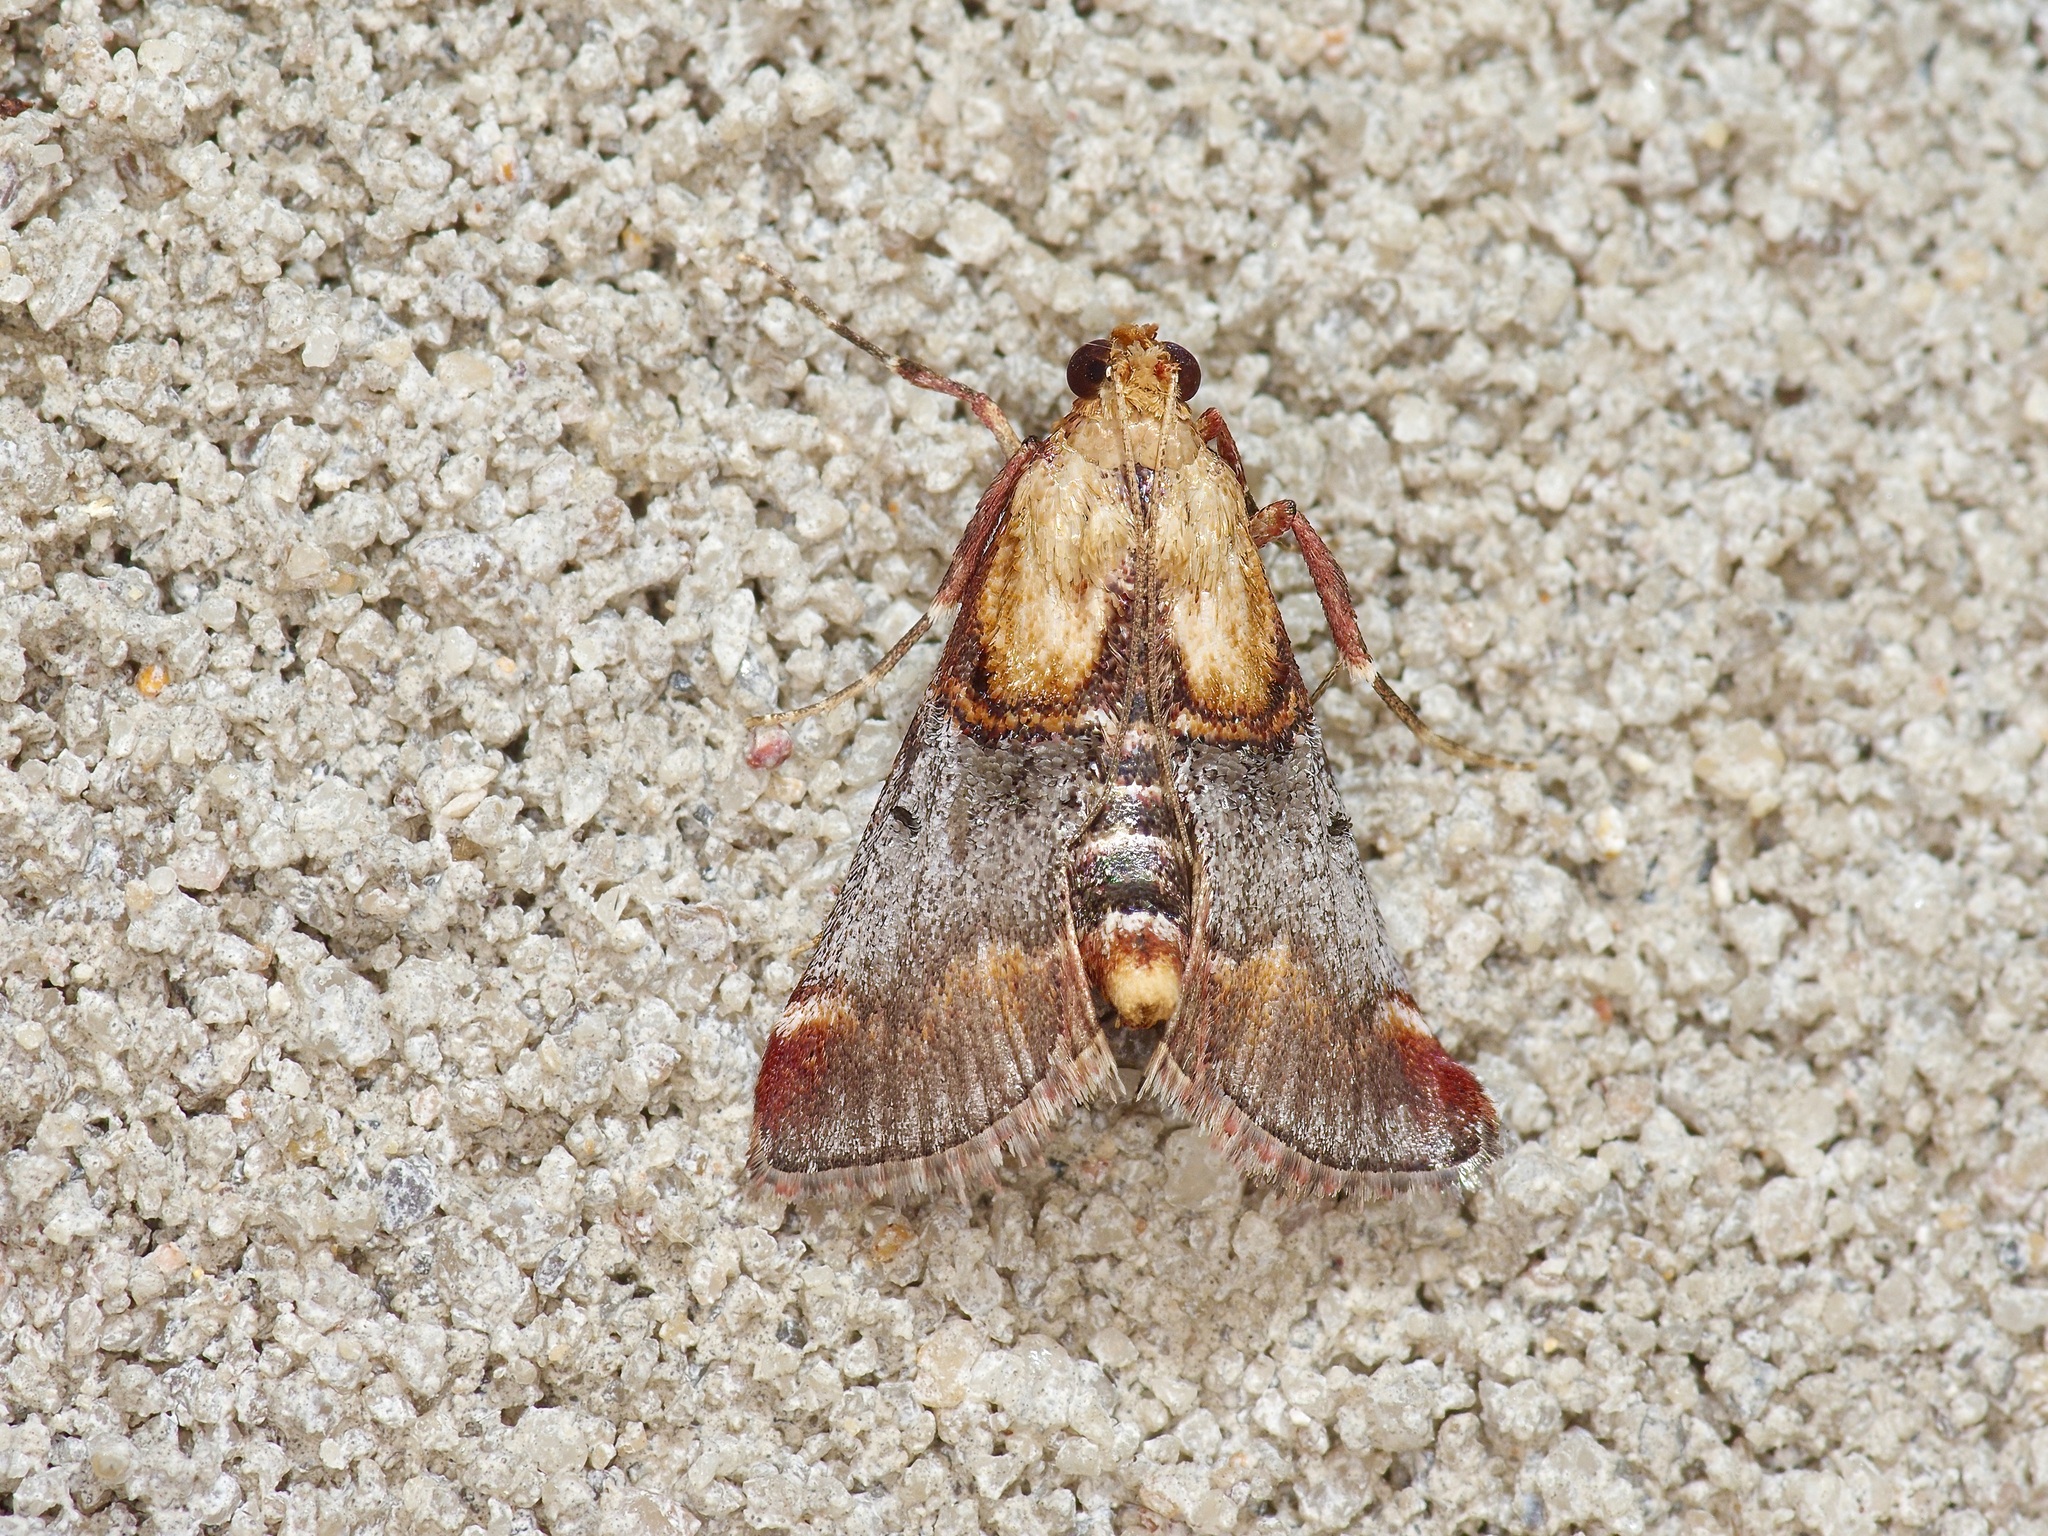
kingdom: Animalia
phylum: Arthropoda
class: Insecta
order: Lepidoptera
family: Pyralidae
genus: Cacozelia
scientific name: Cacozelia basiochrealis
